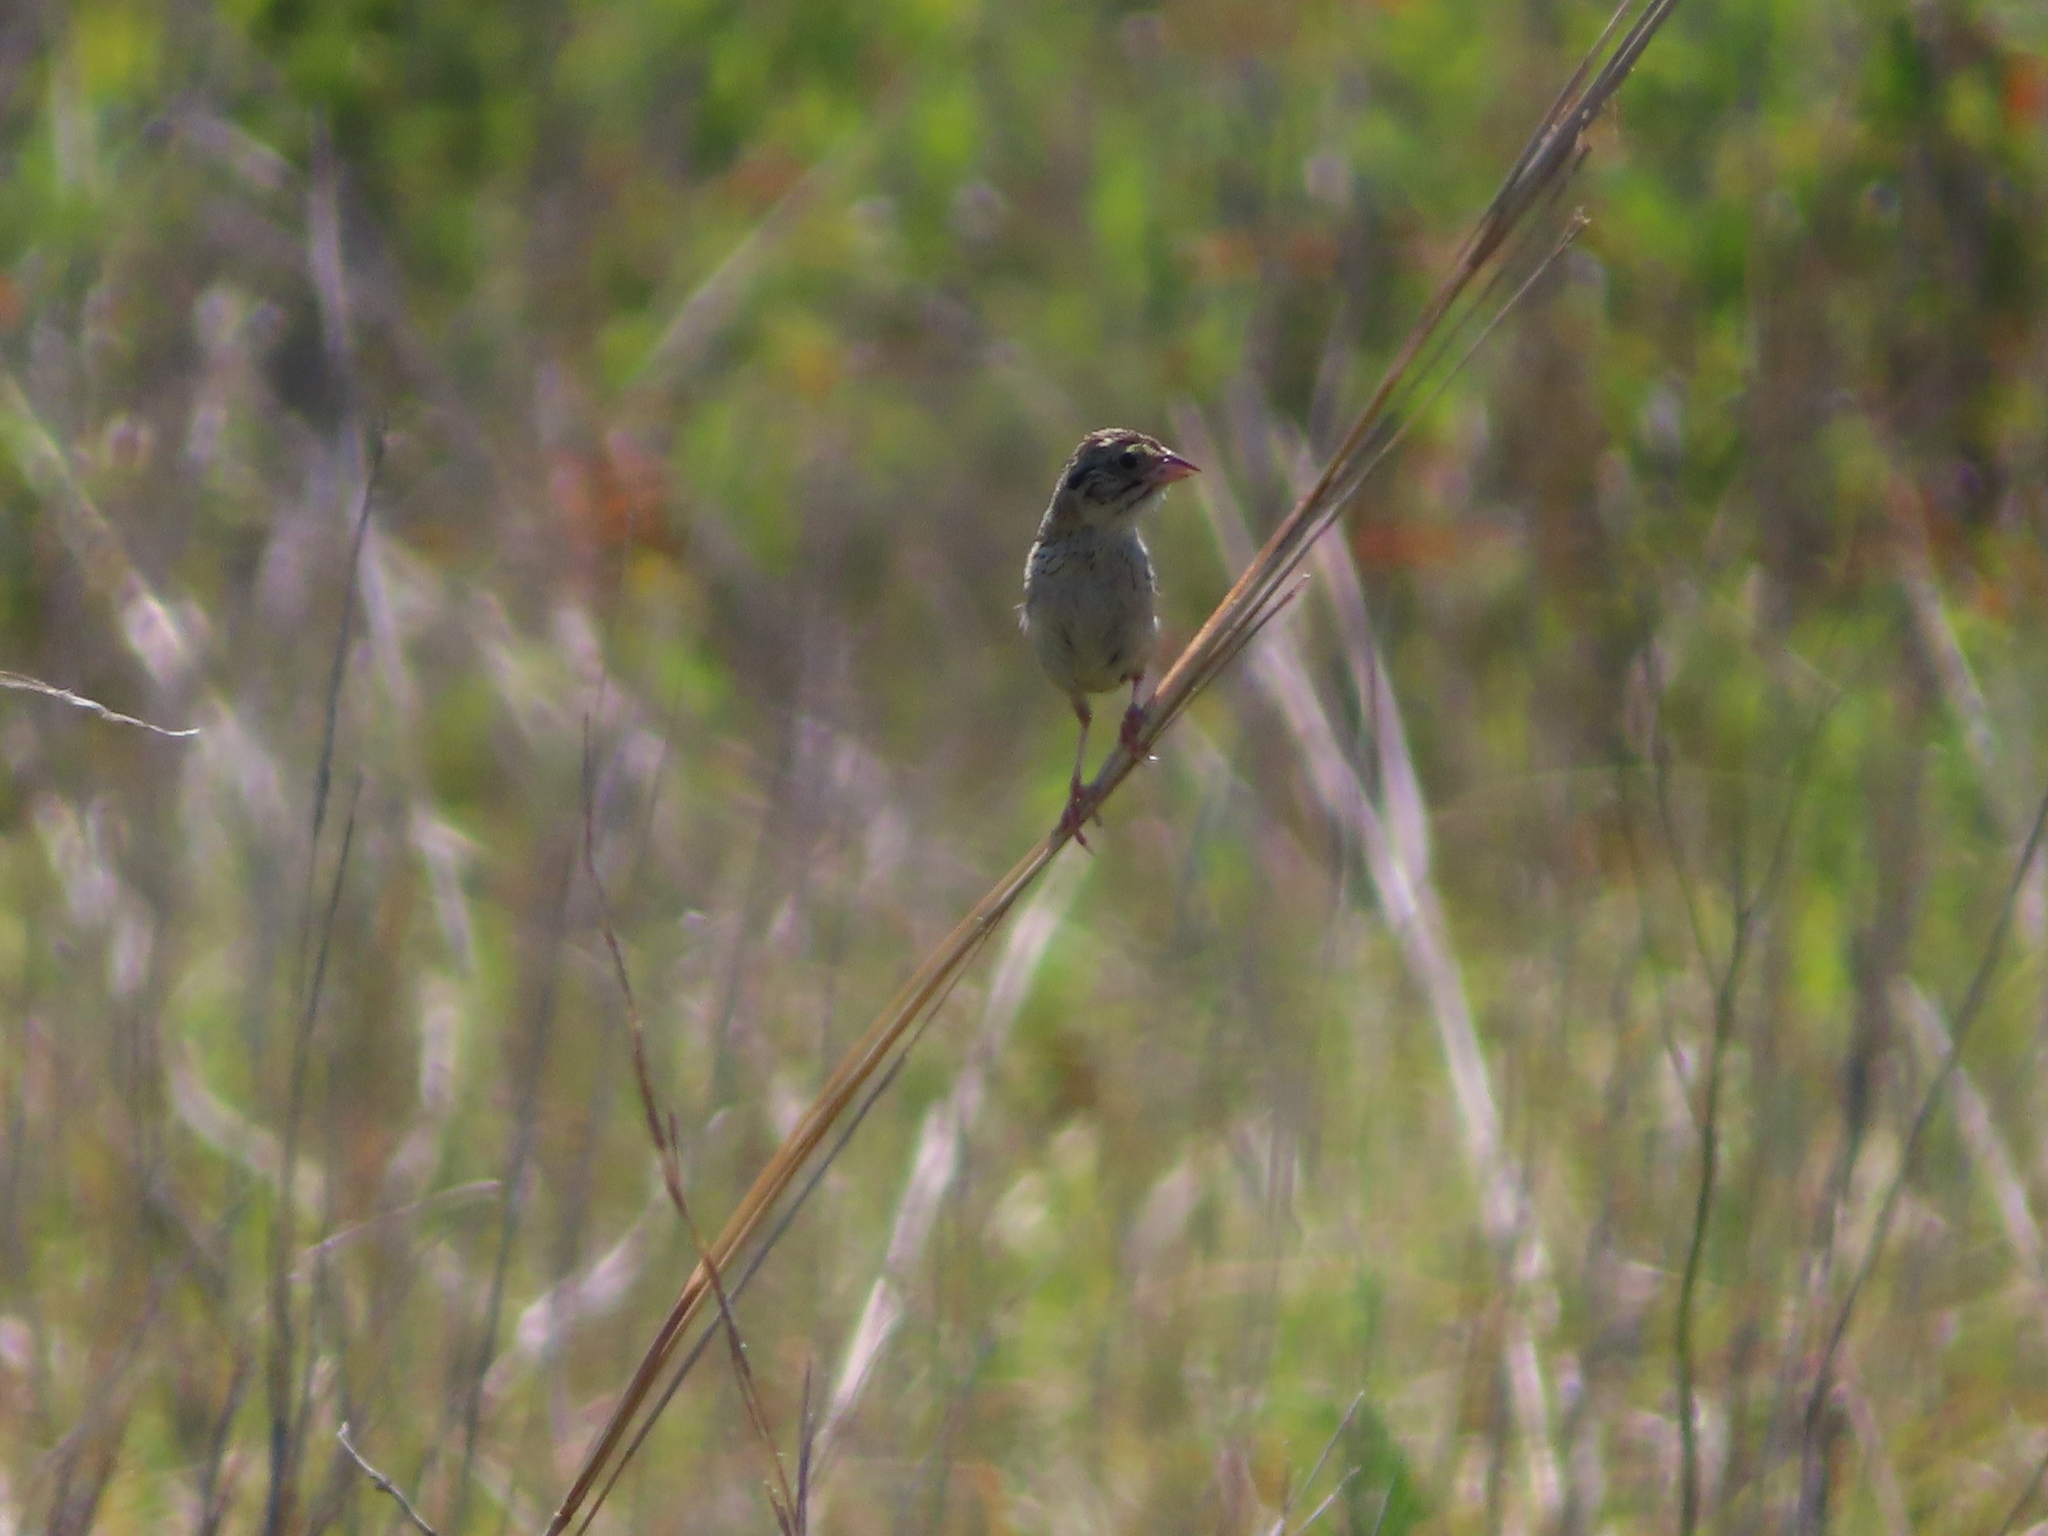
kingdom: Animalia
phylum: Chordata
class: Aves
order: Passeriformes
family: Passerellidae
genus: Centronyx
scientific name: Centronyx henslowii
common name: Henslow's sparrow
